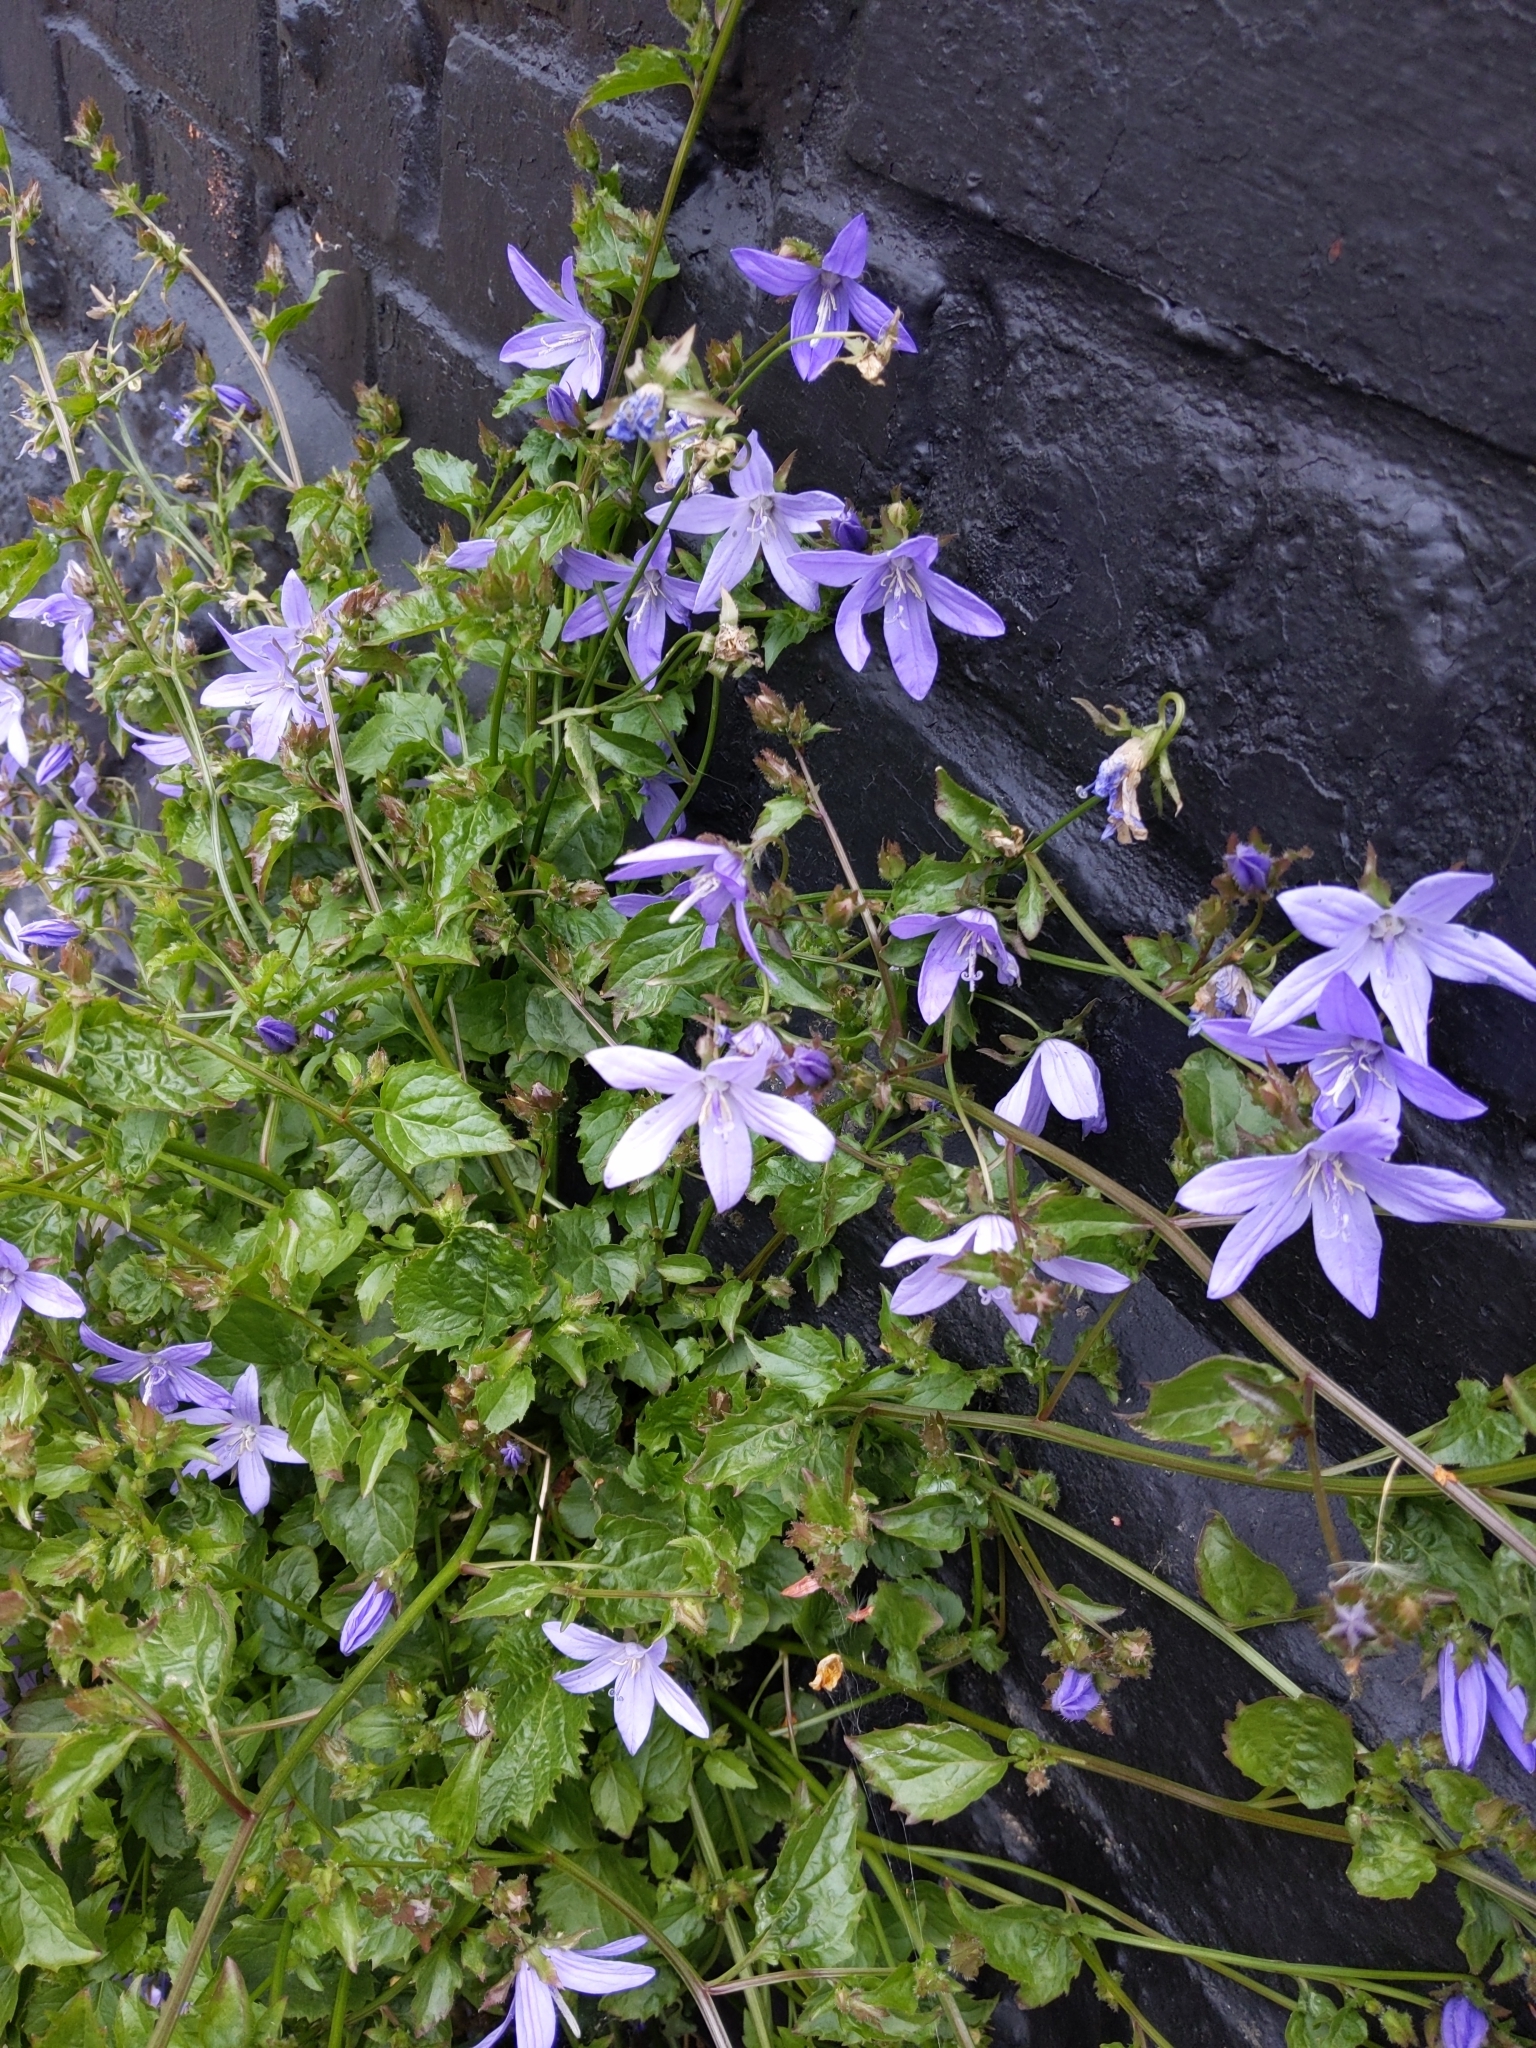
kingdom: Plantae
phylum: Tracheophyta
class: Magnoliopsida
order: Asterales
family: Campanulaceae
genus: Campanula
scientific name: Campanula poscharskyana
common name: Trailing bellflower
